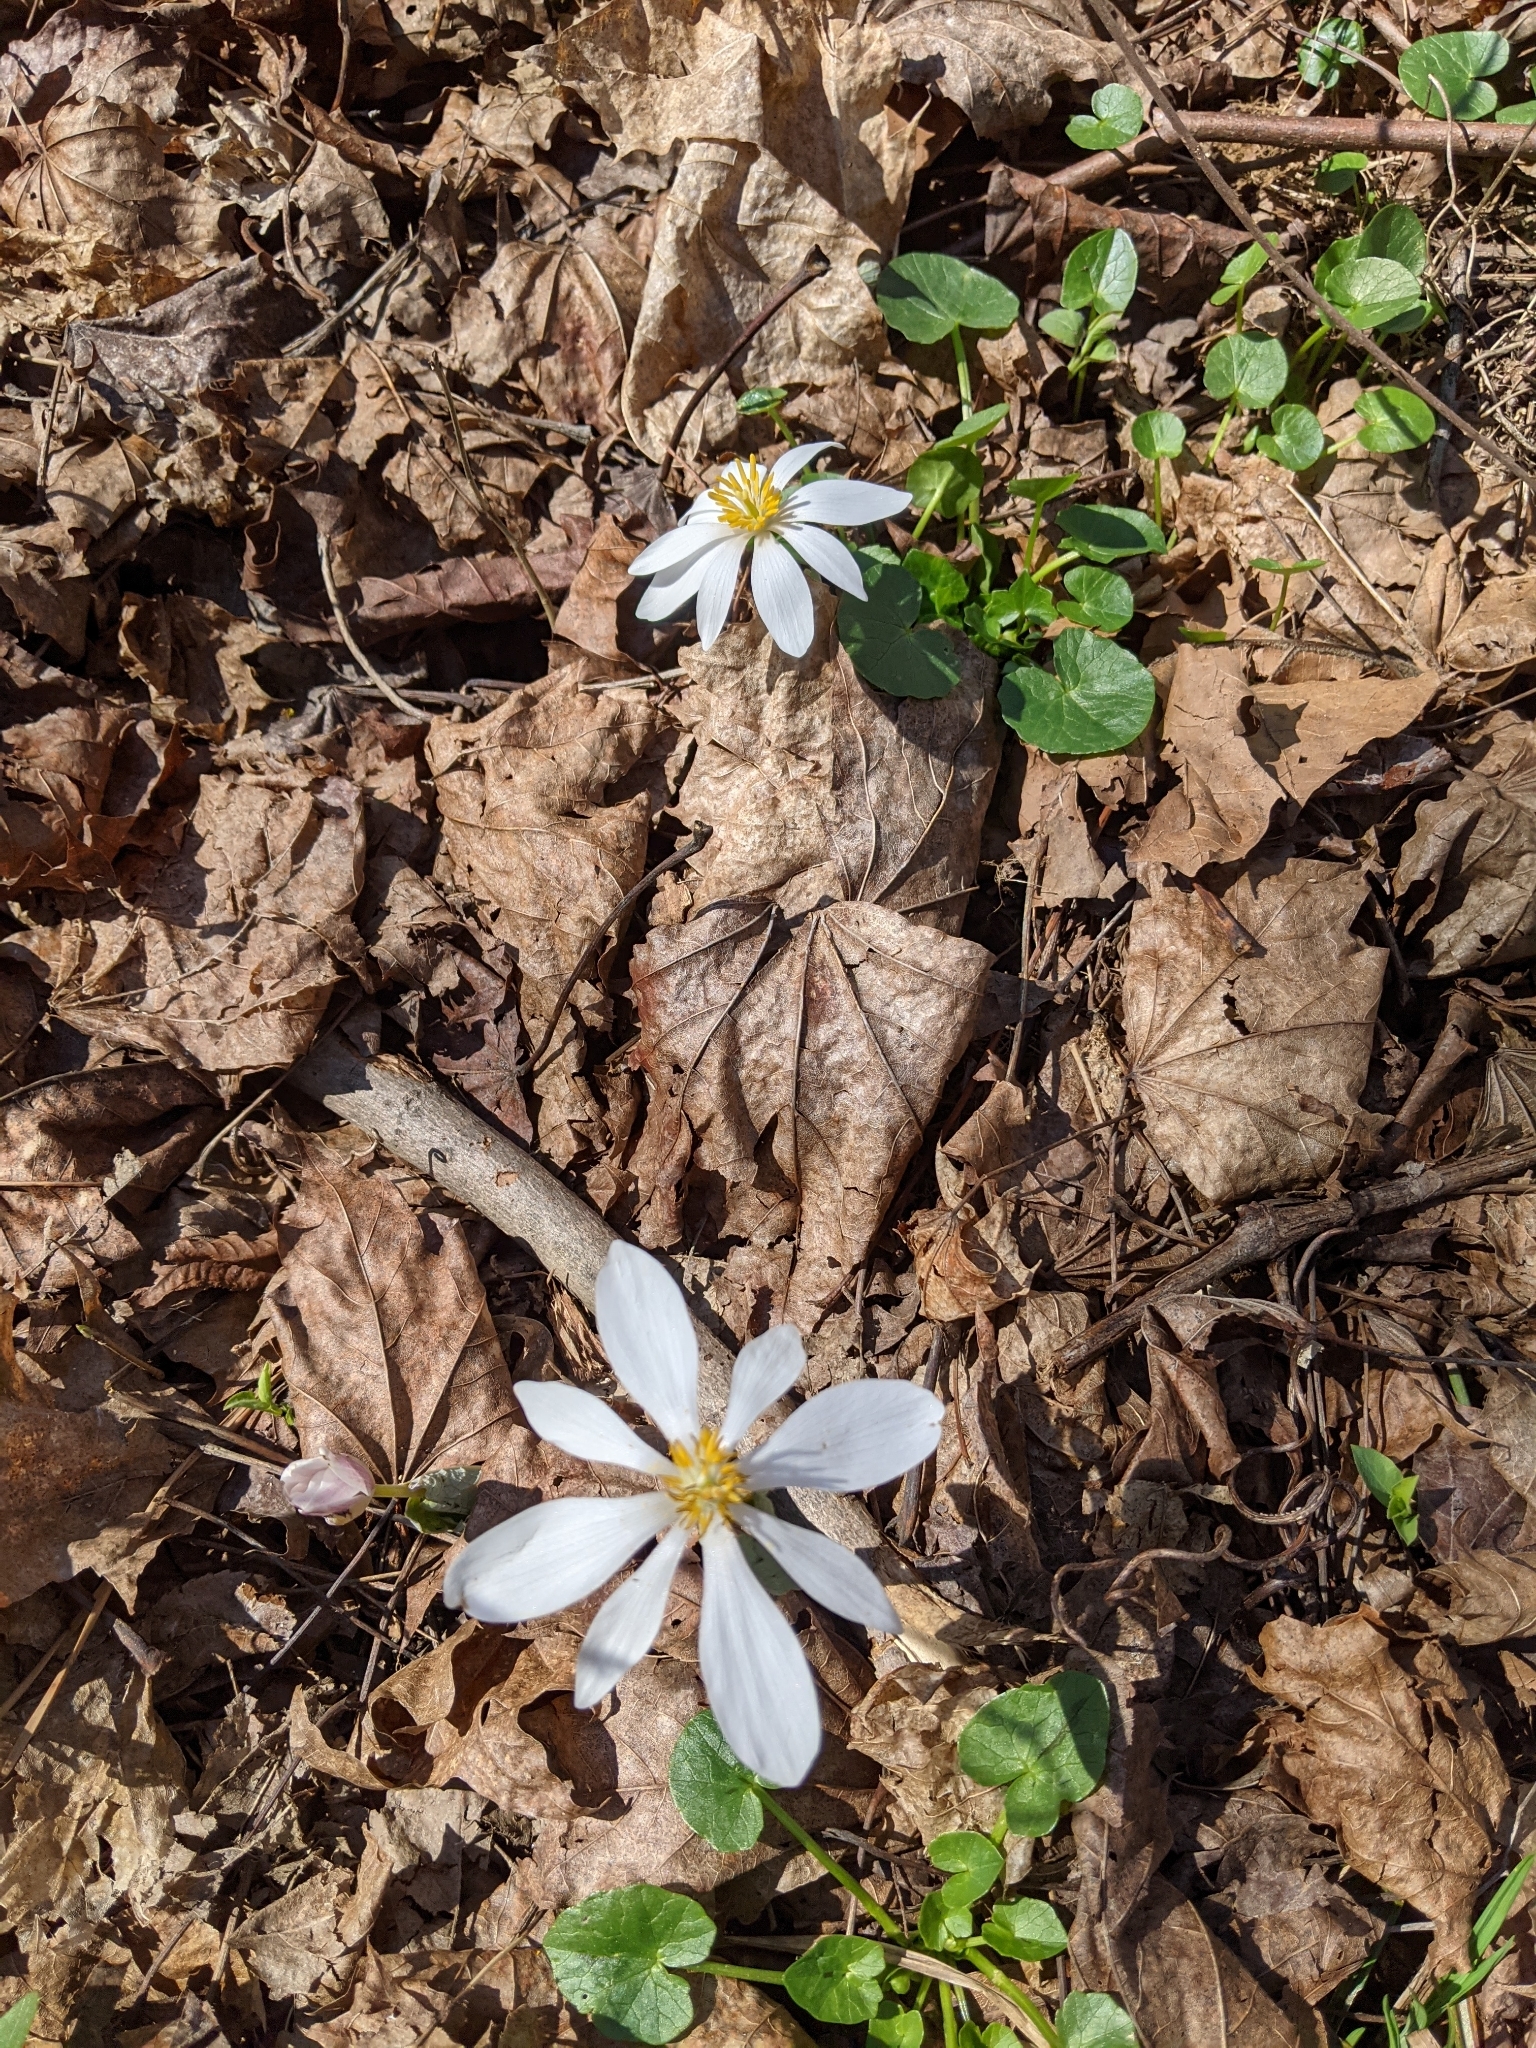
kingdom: Plantae
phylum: Tracheophyta
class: Magnoliopsida
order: Ranunculales
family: Papaveraceae
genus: Sanguinaria
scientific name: Sanguinaria canadensis
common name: Bloodroot
